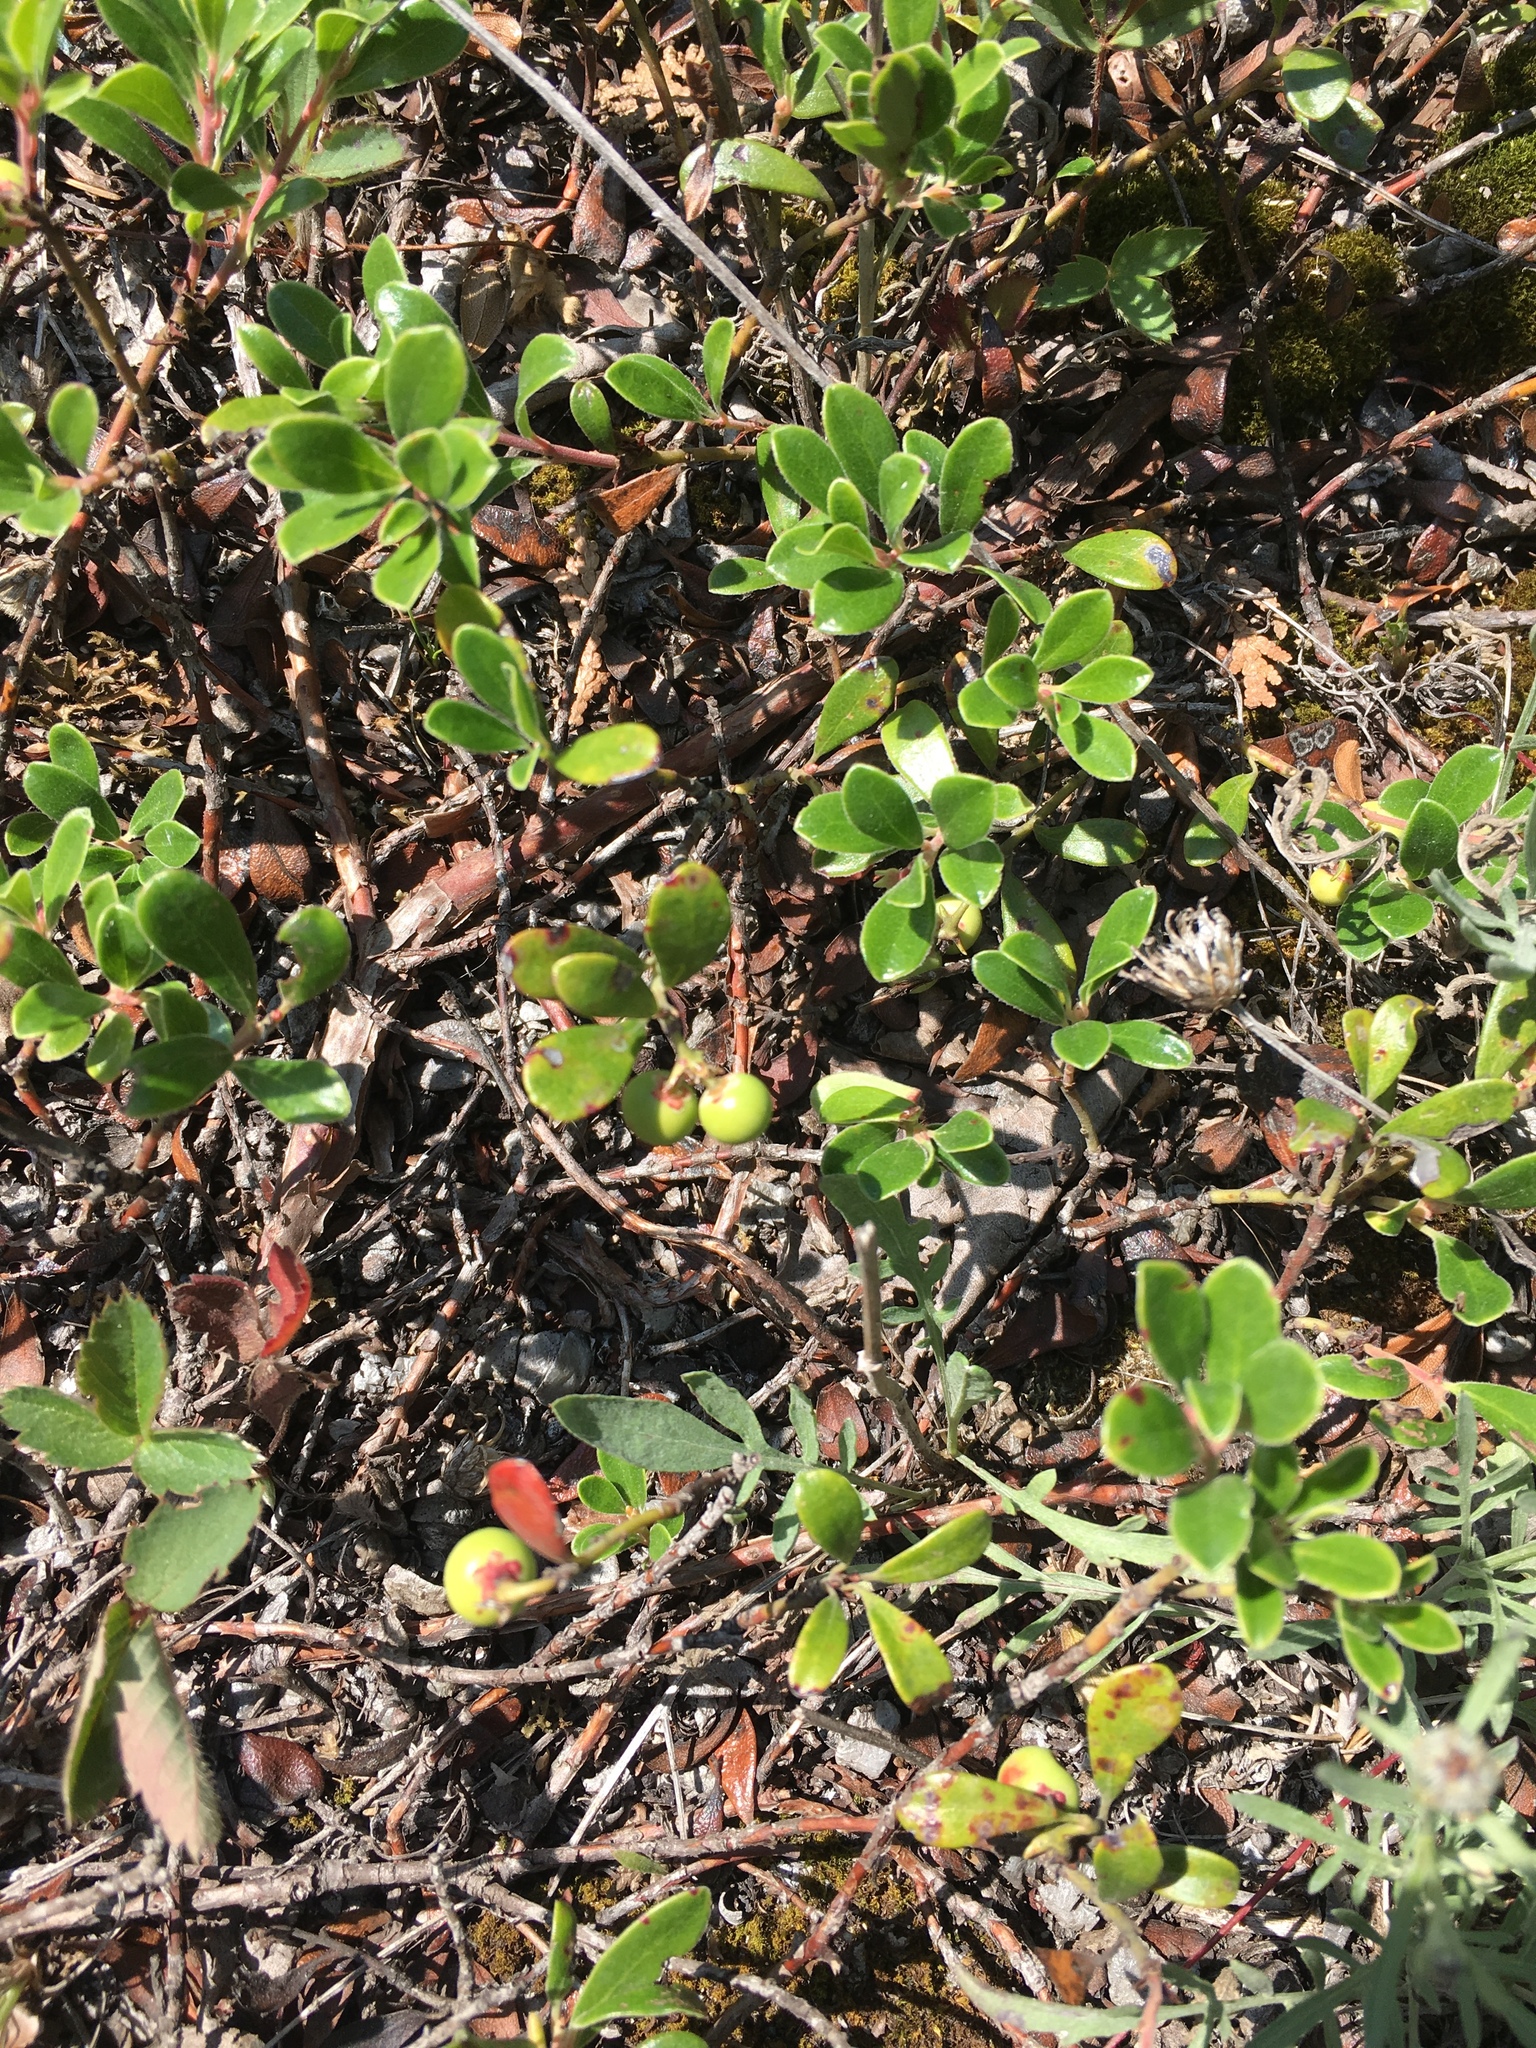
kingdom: Plantae
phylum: Tracheophyta
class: Magnoliopsida
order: Ericales
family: Ericaceae
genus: Arctostaphylos
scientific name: Arctostaphylos uva-ursi
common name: Bearberry
